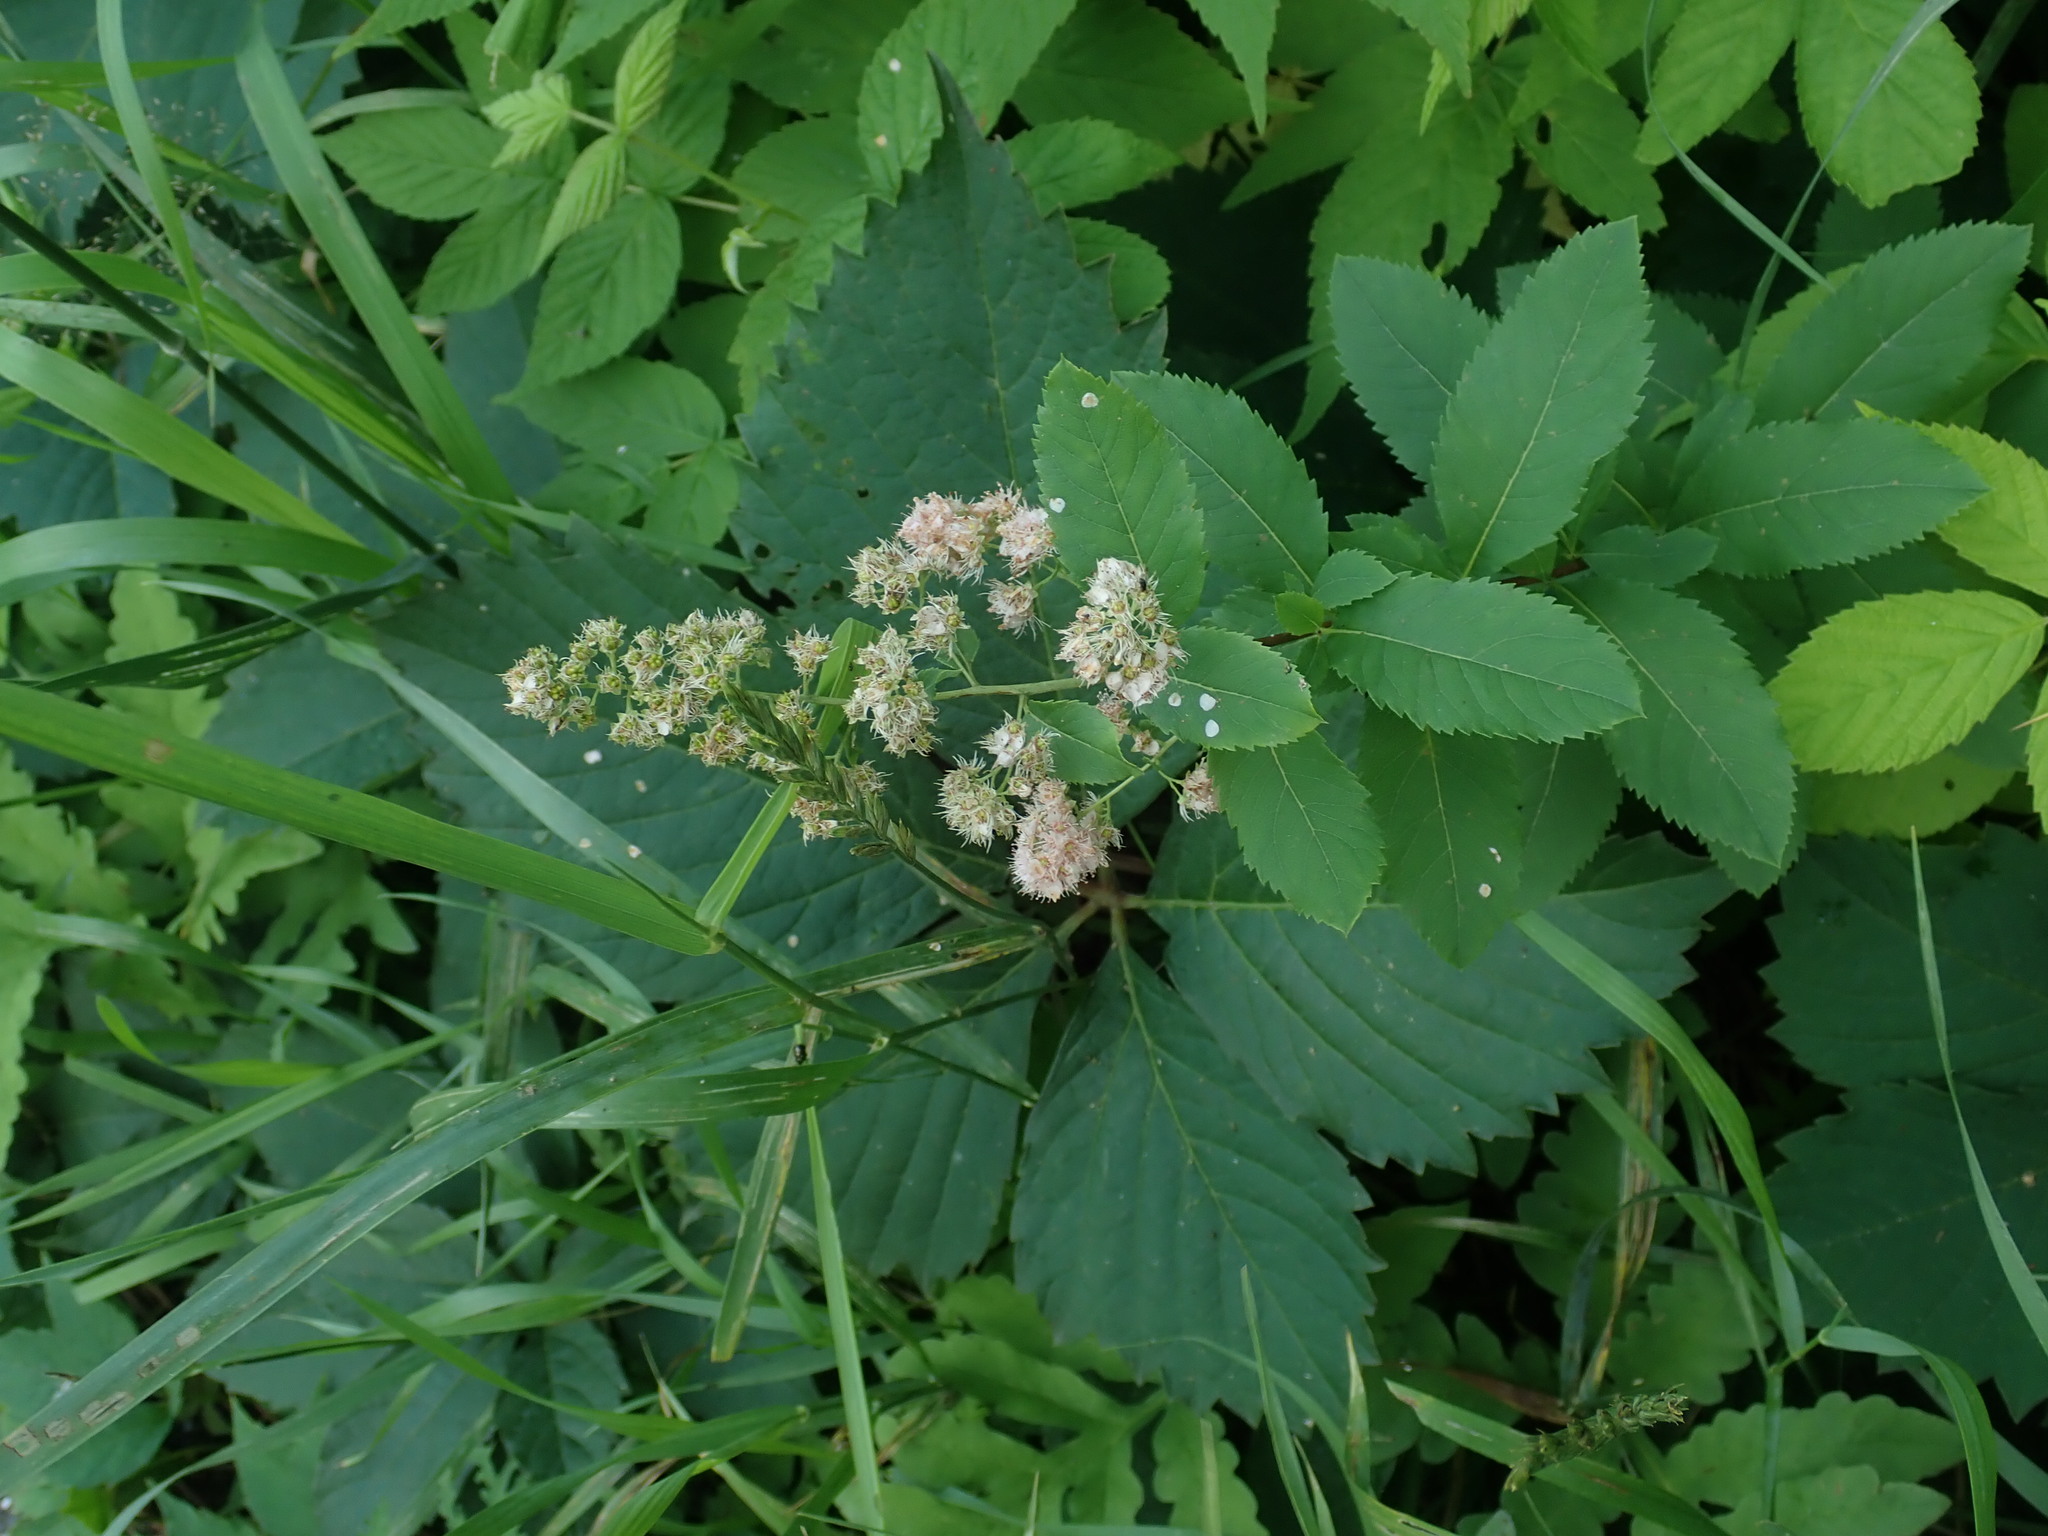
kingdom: Plantae
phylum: Tracheophyta
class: Magnoliopsida
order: Rosales
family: Rosaceae
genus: Spiraea
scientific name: Spiraea alba
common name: Pale bridewort
